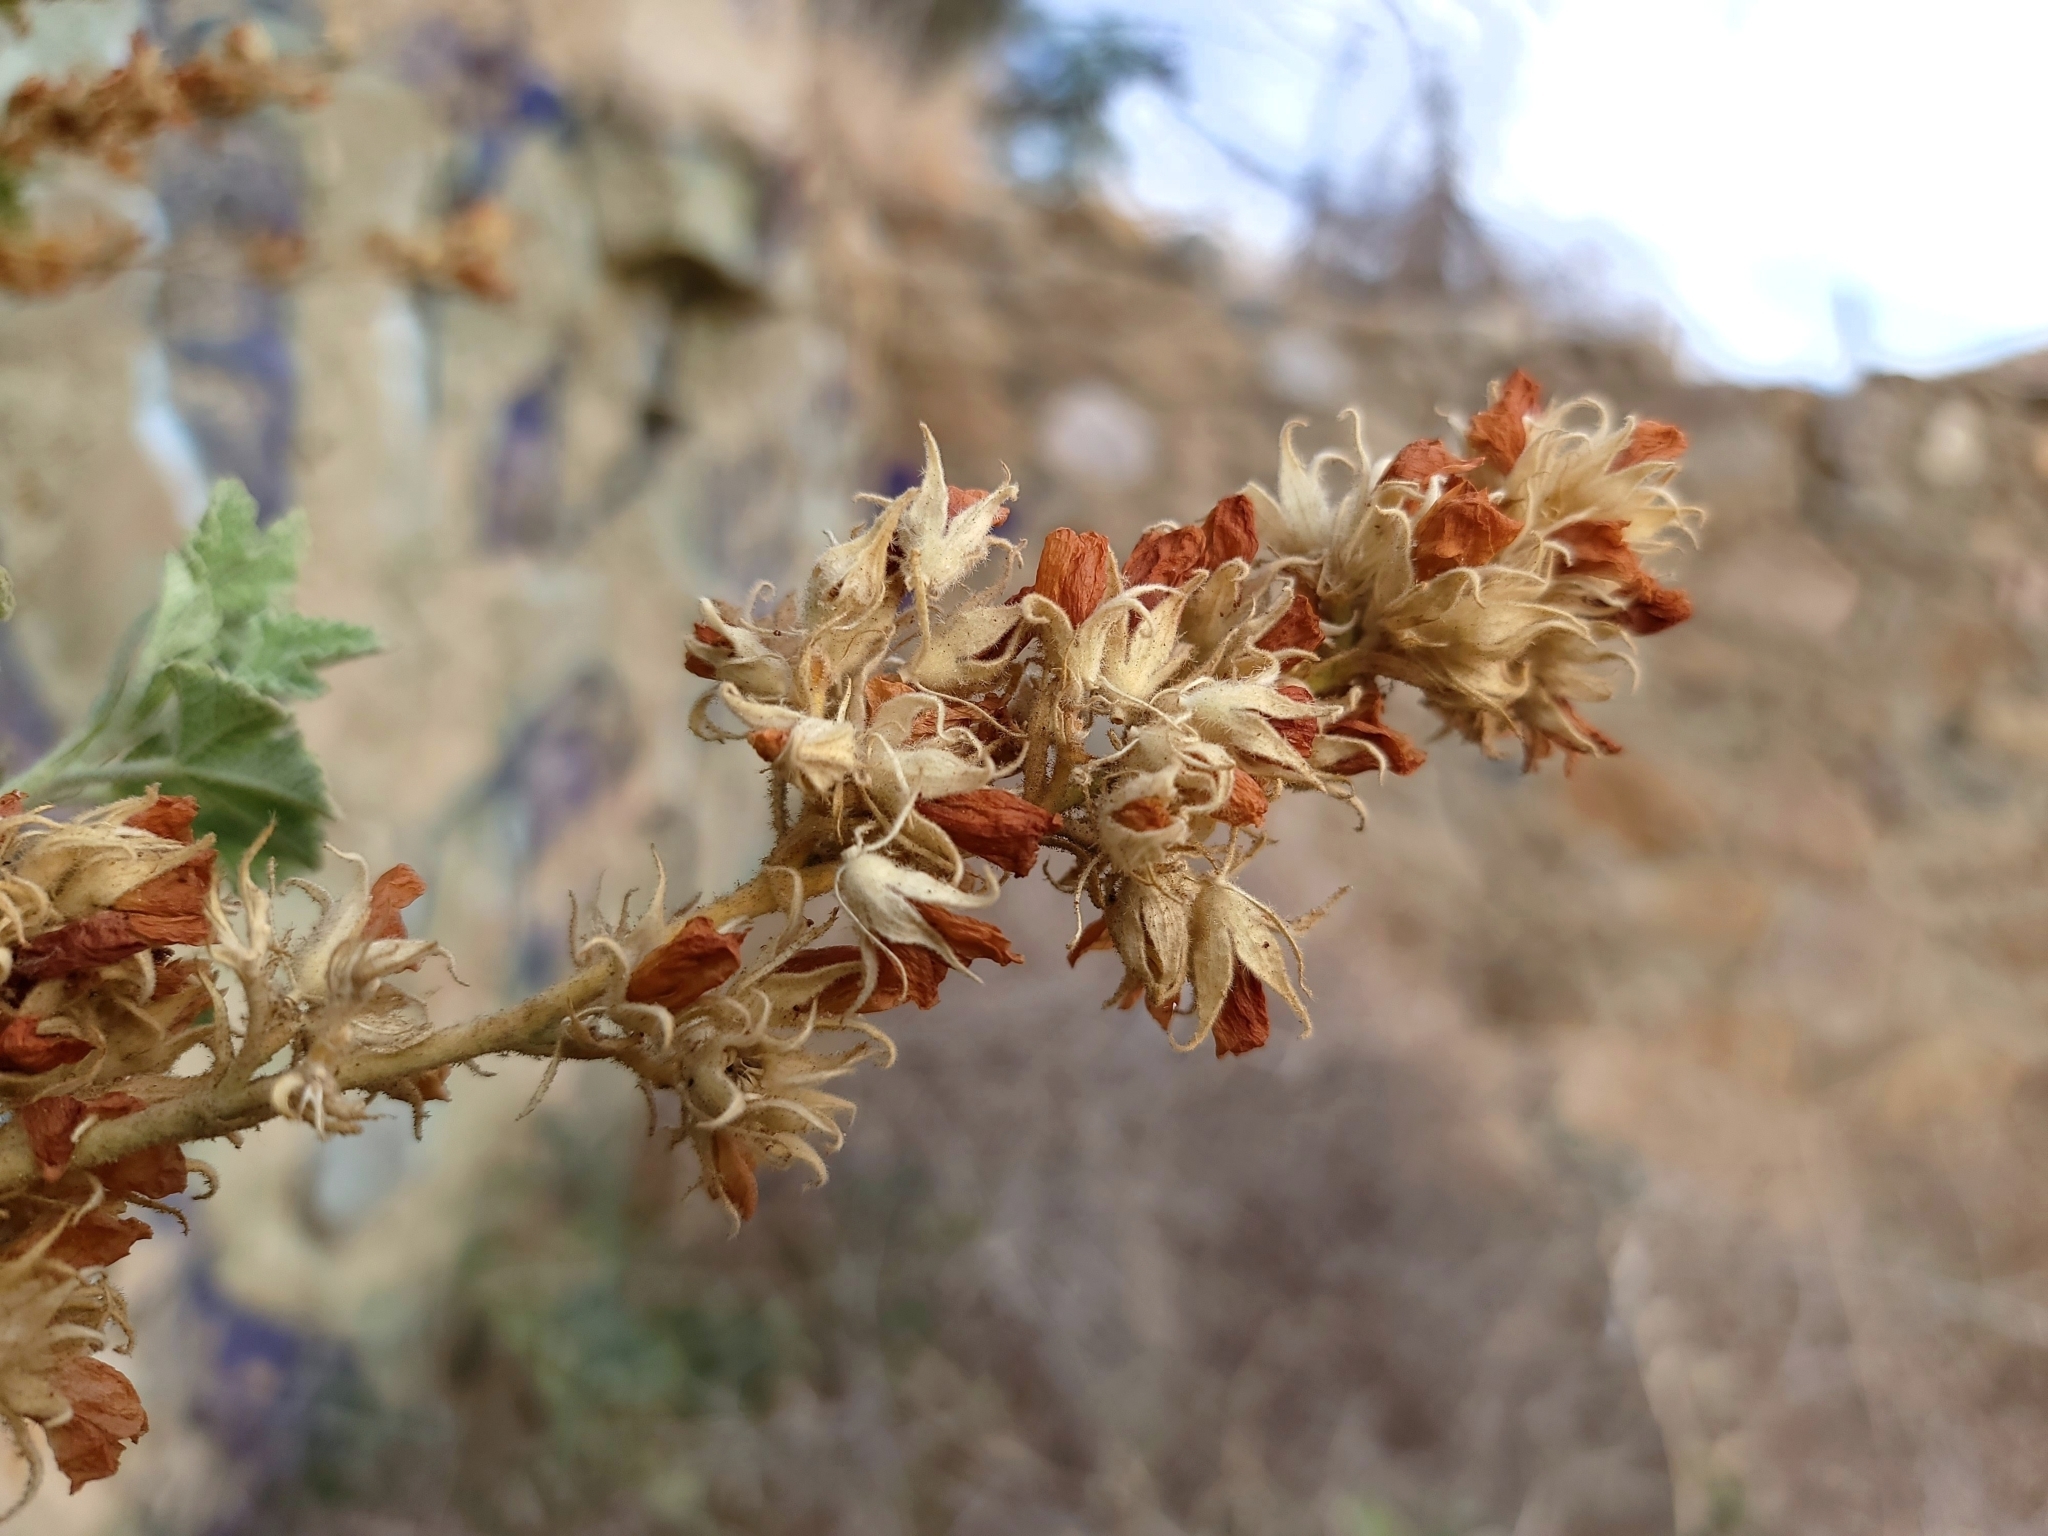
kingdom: Plantae
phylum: Tracheophyta
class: Magnoliopsida
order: Malvales
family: Malvaceae
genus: Malacothamnus
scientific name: Malacothamnus marrubioides
